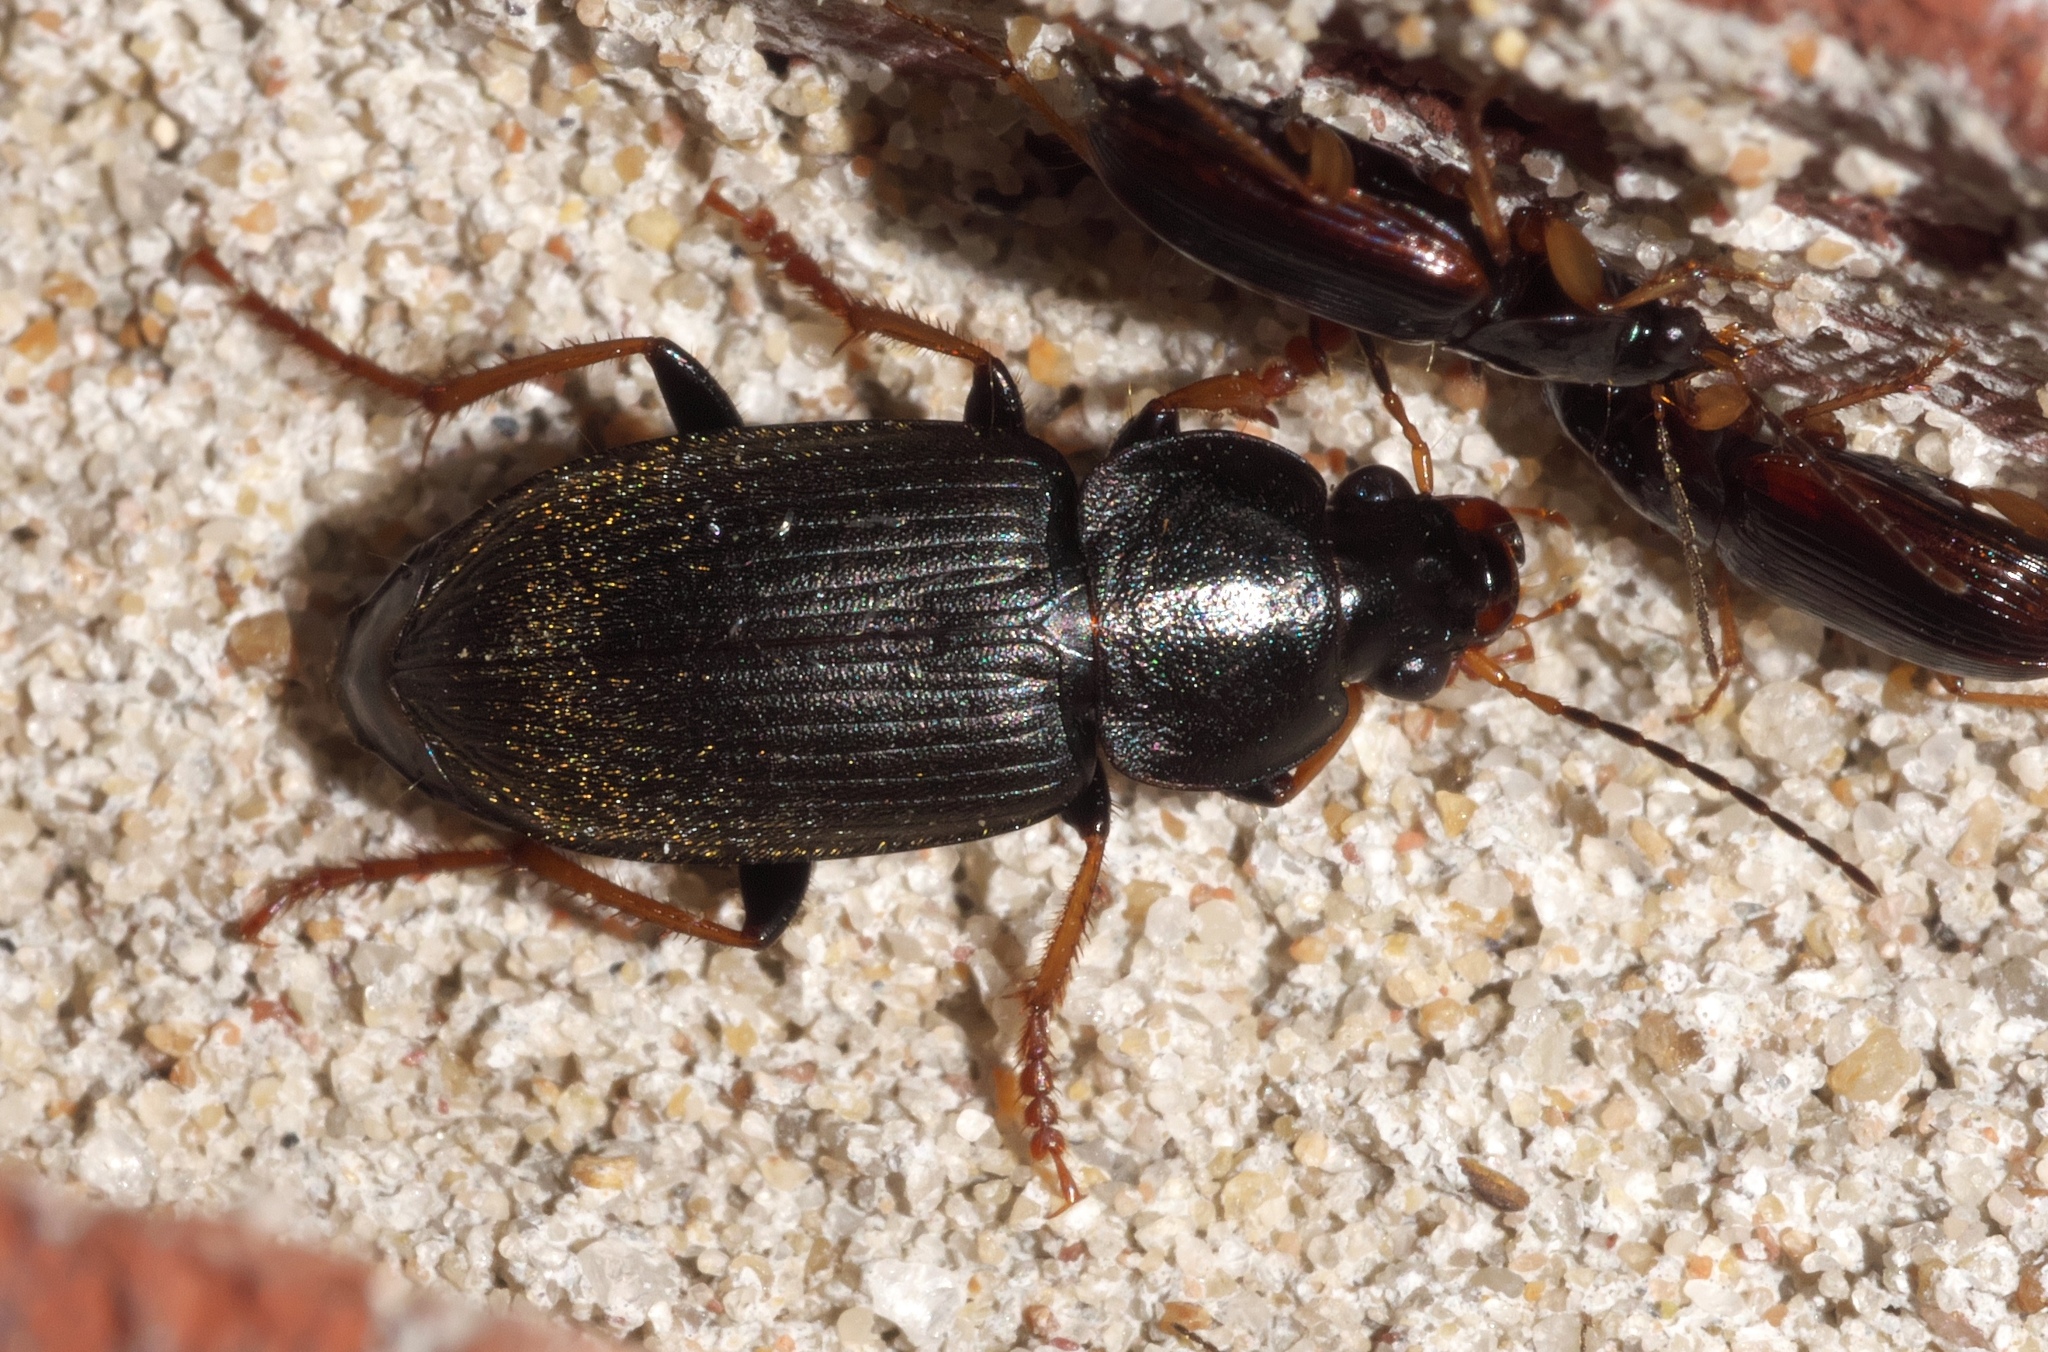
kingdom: Animalia
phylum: Arthropoda
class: Insecta
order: Coleoptera
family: Carabidae
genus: Amphasia
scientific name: Amphasia sericea
